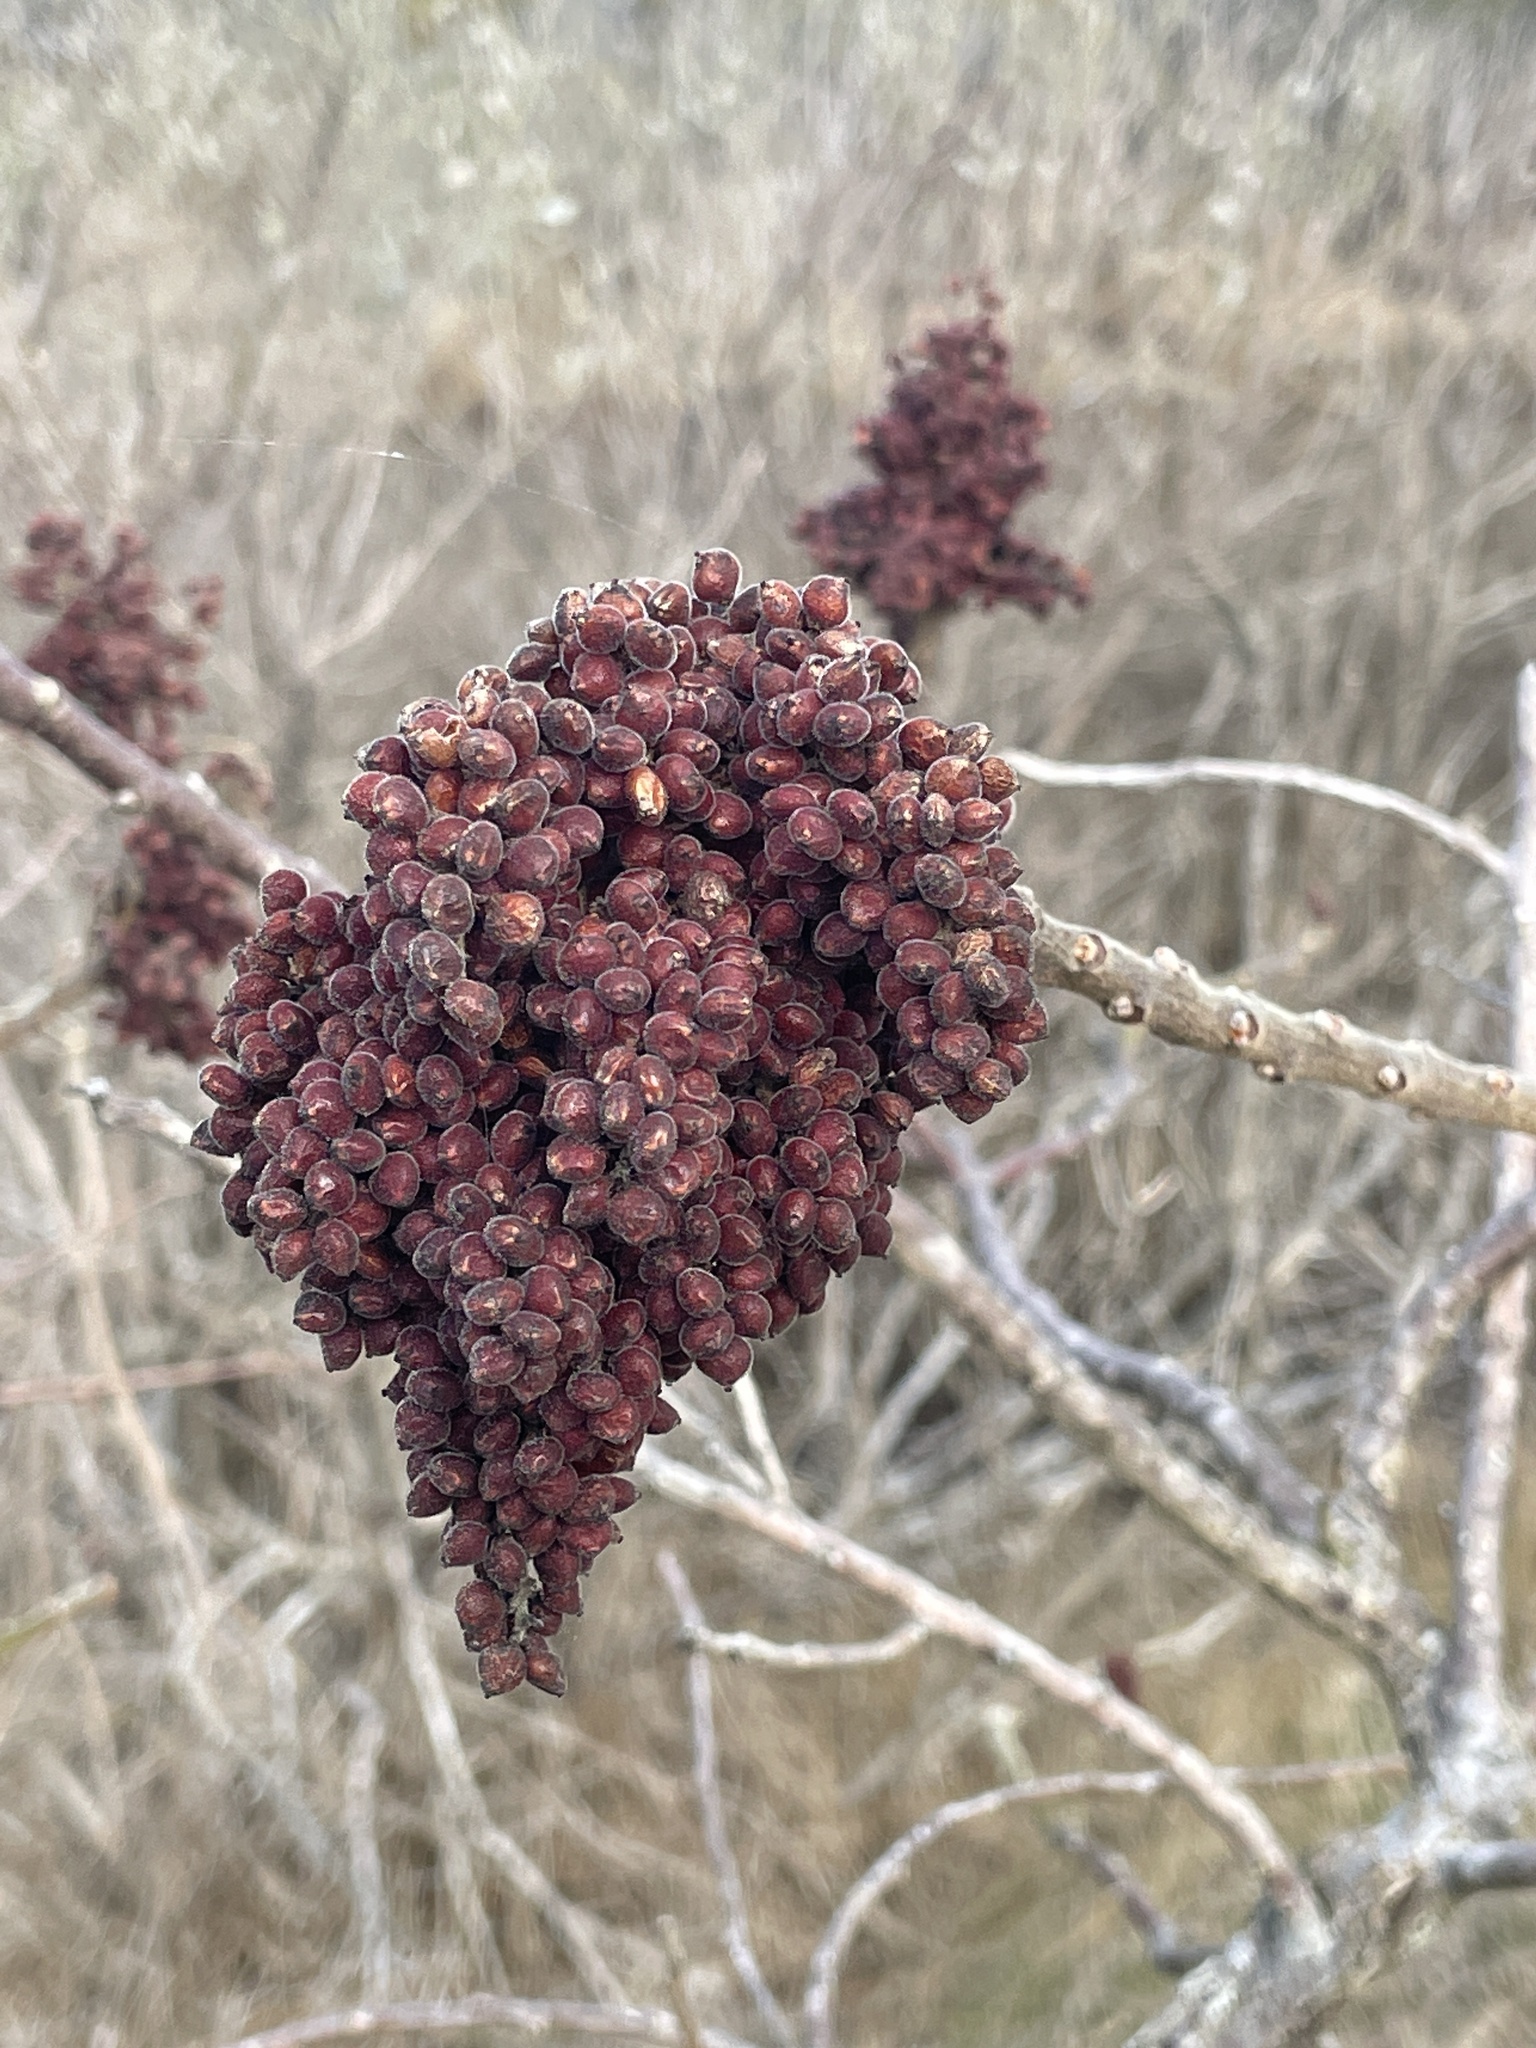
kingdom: Plantae
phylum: Tracheophyta
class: Magnoliopsida
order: Sapindales
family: Anacardiaceae
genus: Rhus
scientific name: Rhus copallina
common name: Shining sumac
